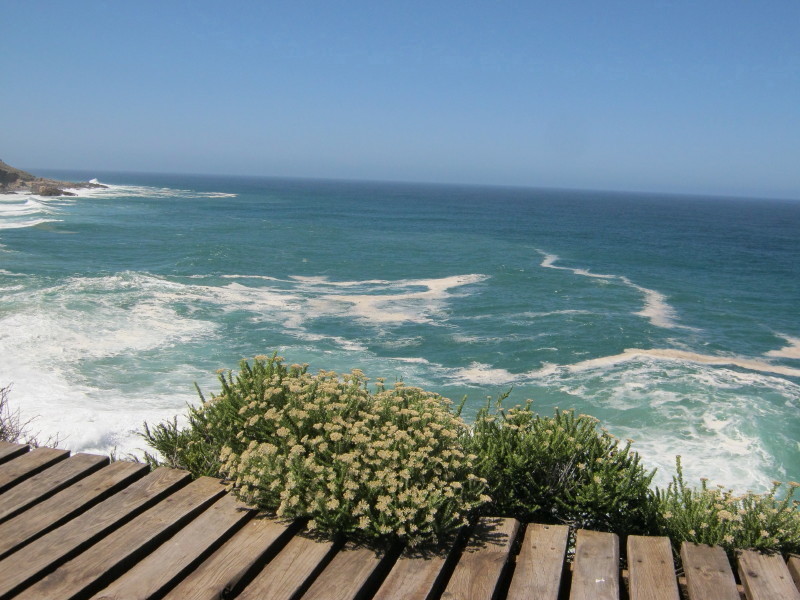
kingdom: Plantae
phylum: Tracheophyta
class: Magnoliopsida
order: Asterales
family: Asteraceae
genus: Metalasia
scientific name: Metalasia muricata
